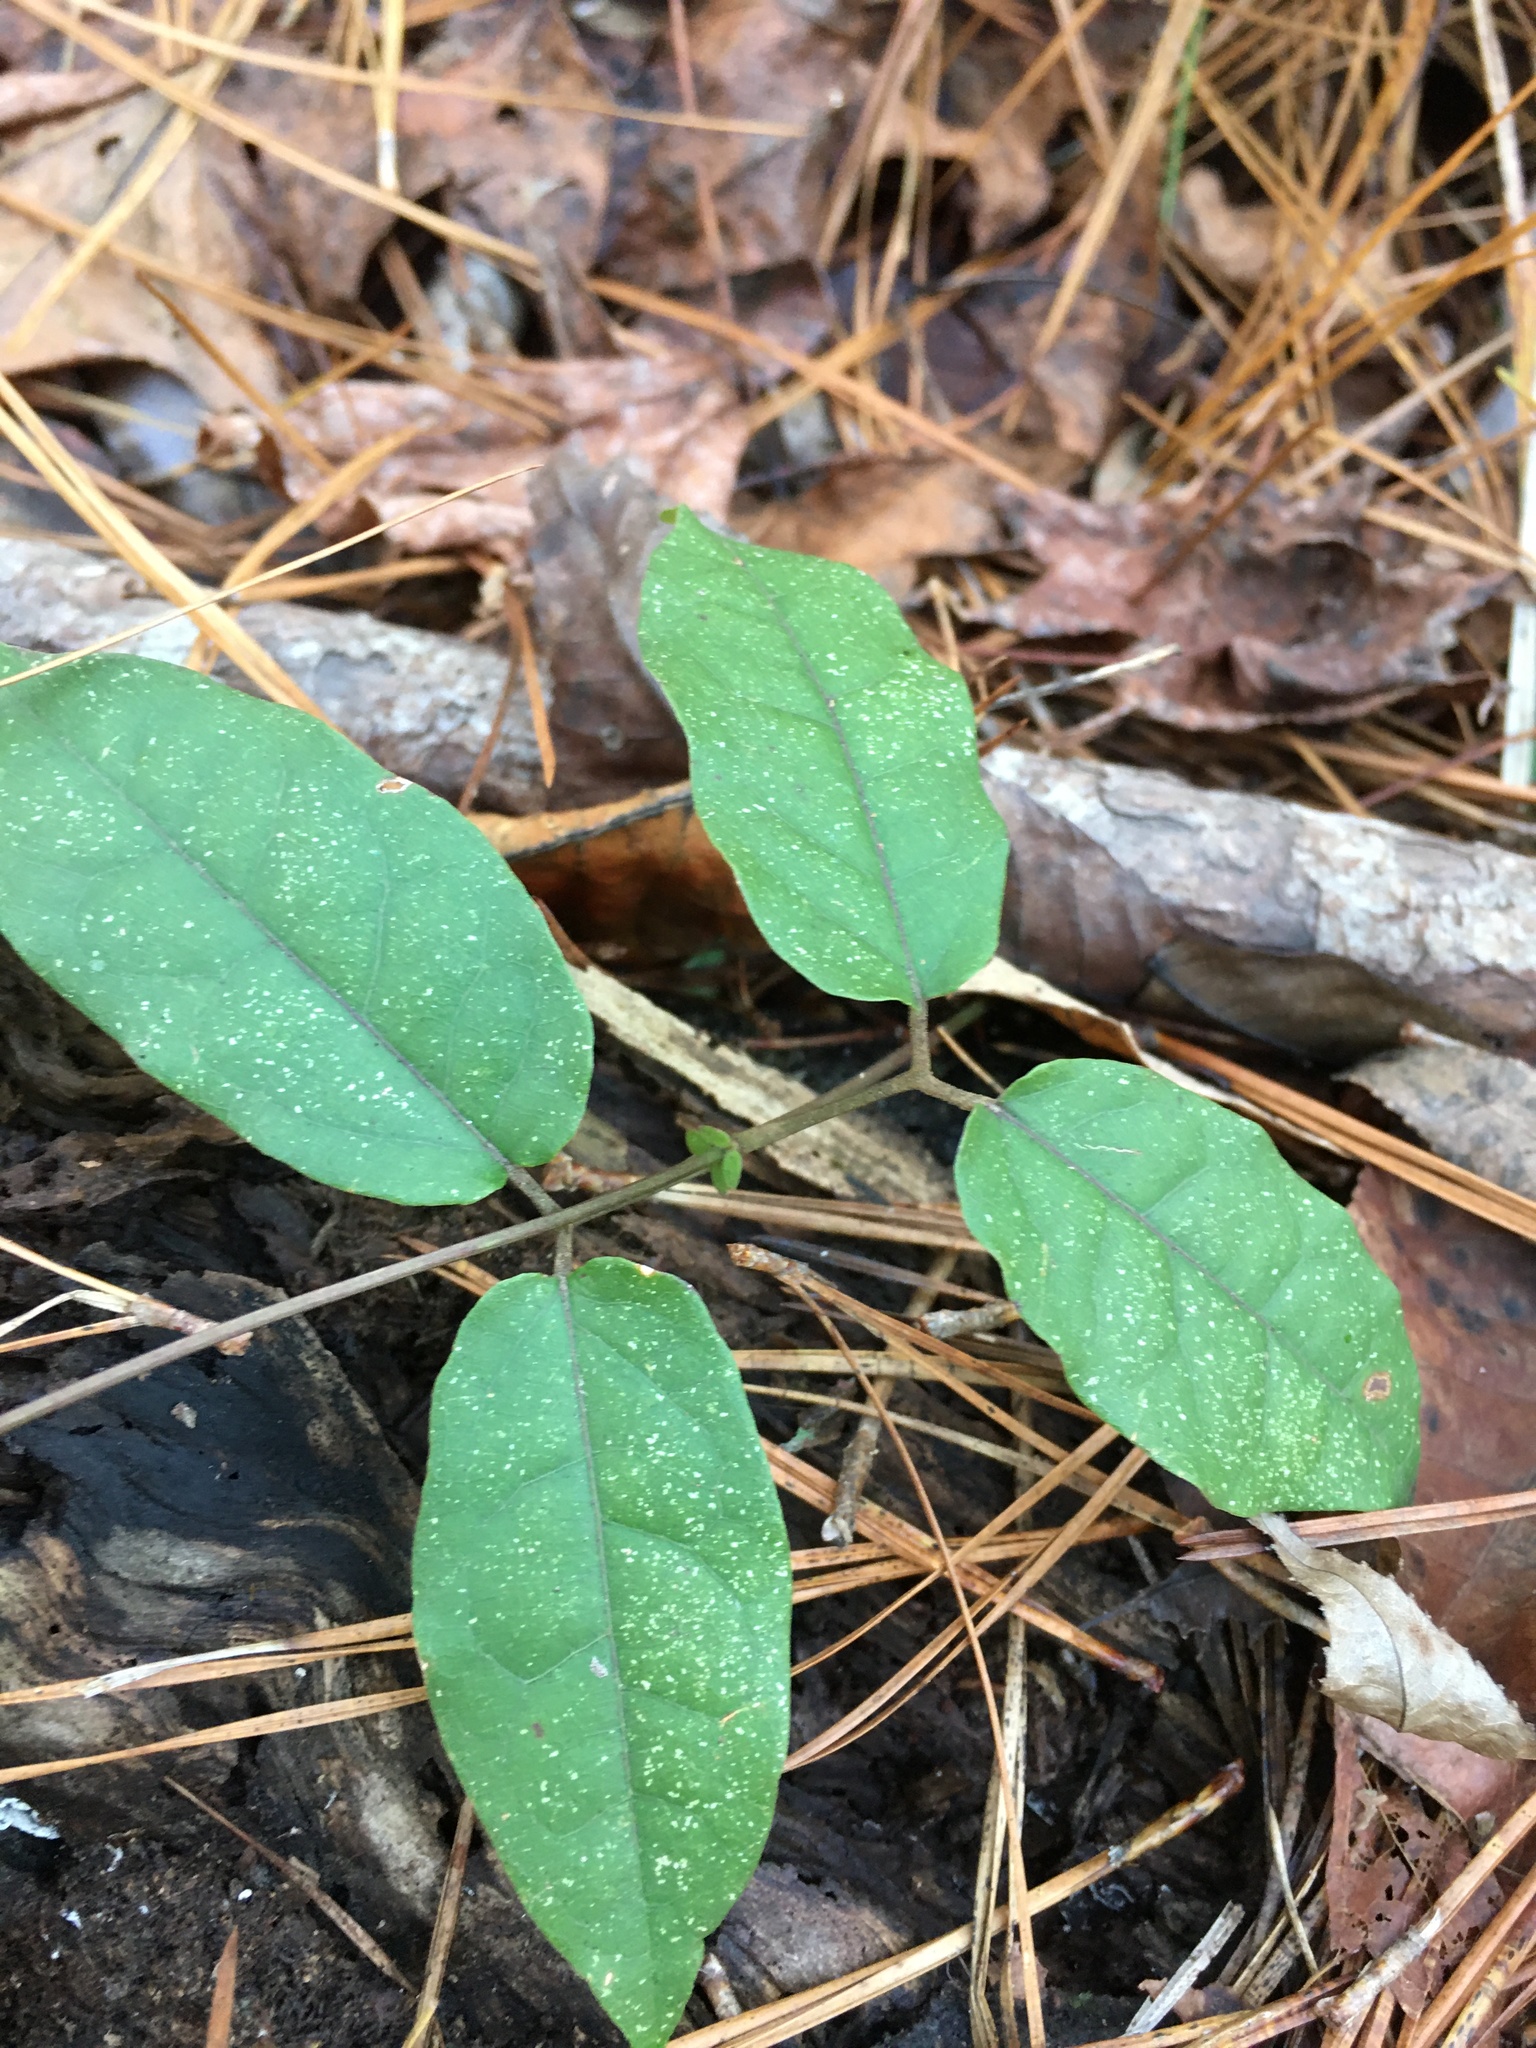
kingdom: Plantae
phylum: Tracheophyta
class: Magnoliopsida
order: Lamiales
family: Bignoniaceae
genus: Bignonia
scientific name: Bignonia capreolata
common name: Crossvine
